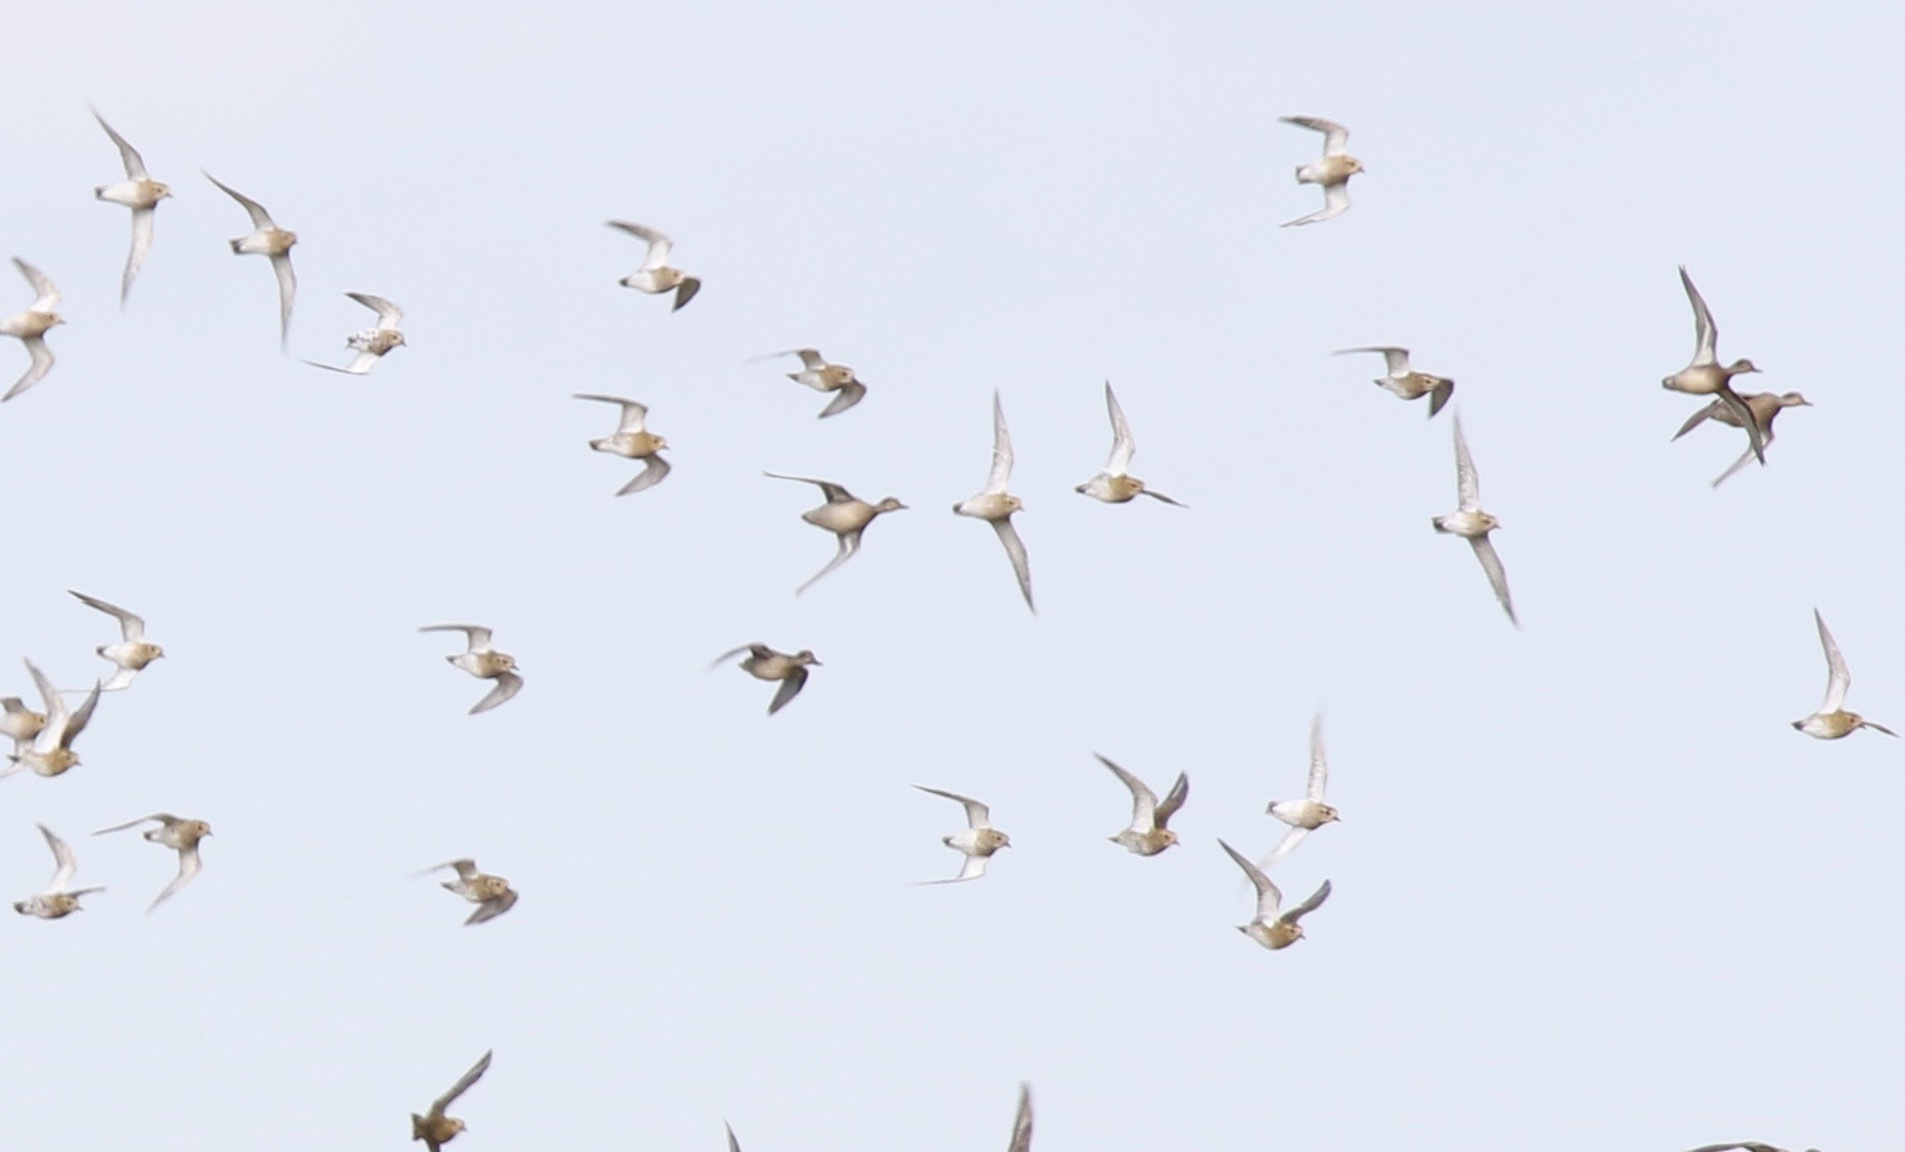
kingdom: Animalia
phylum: Chordata
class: Aves
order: Charadriiformes
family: Charadriidae
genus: Pluvialis
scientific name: Pluvialis apricaria
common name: European golden plover
